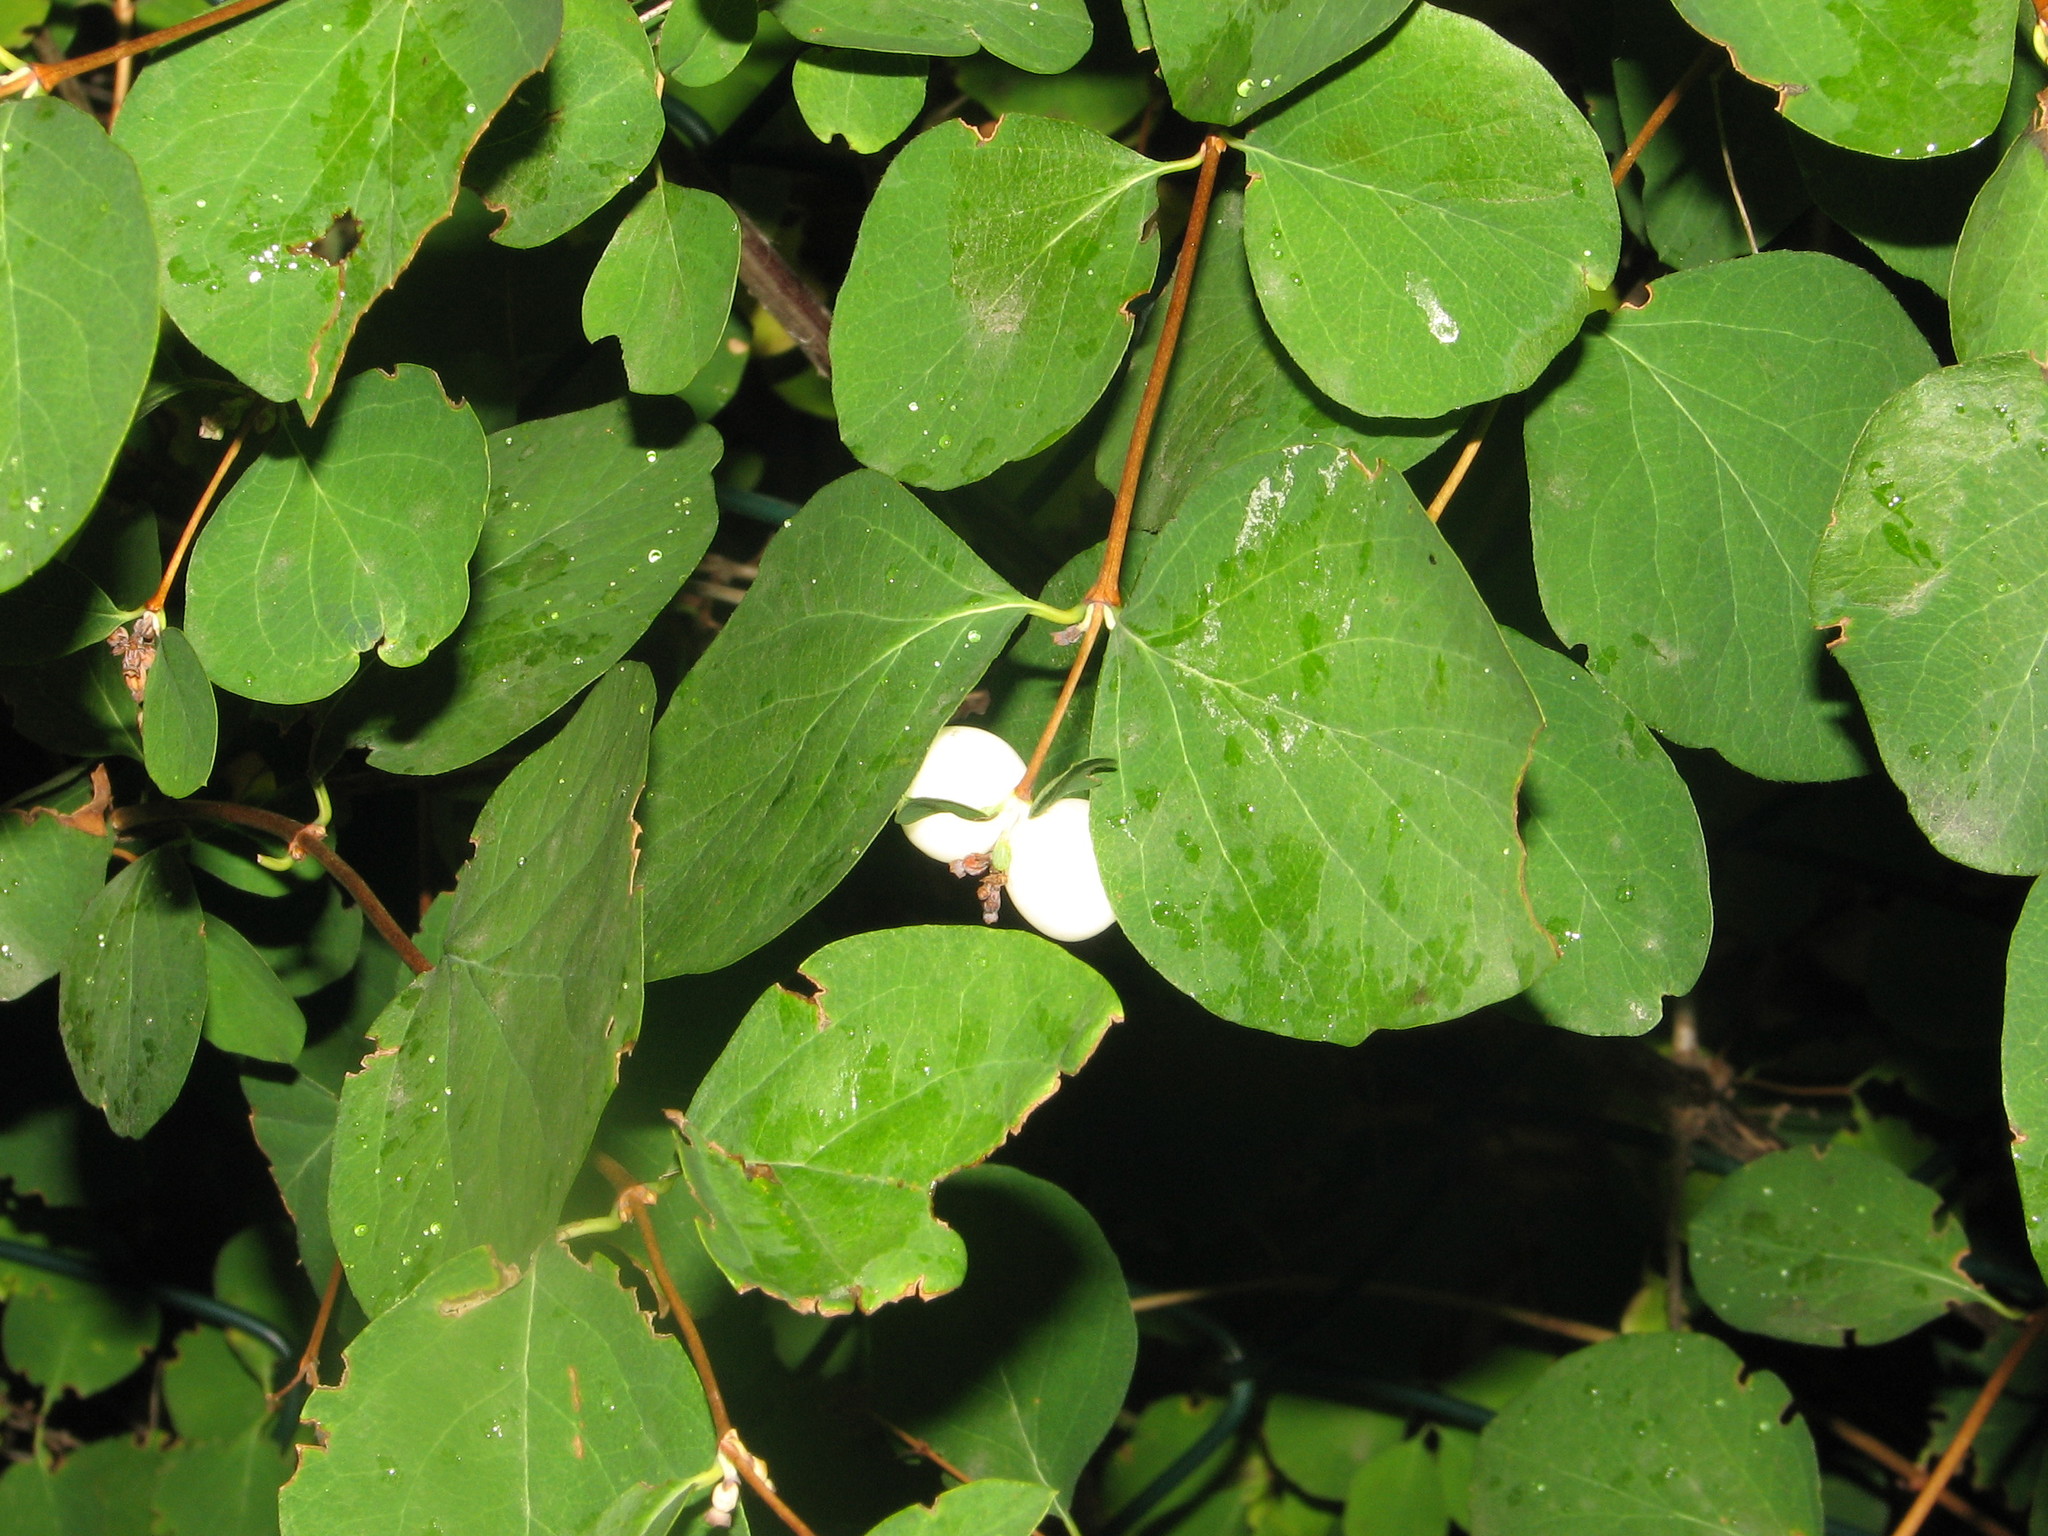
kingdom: Plantae
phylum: Tracheophyta
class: Magnoliopsida
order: Dipsacales
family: Caprifoliaceae
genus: Symphoricarpos
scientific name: Symphoricarpos albus
